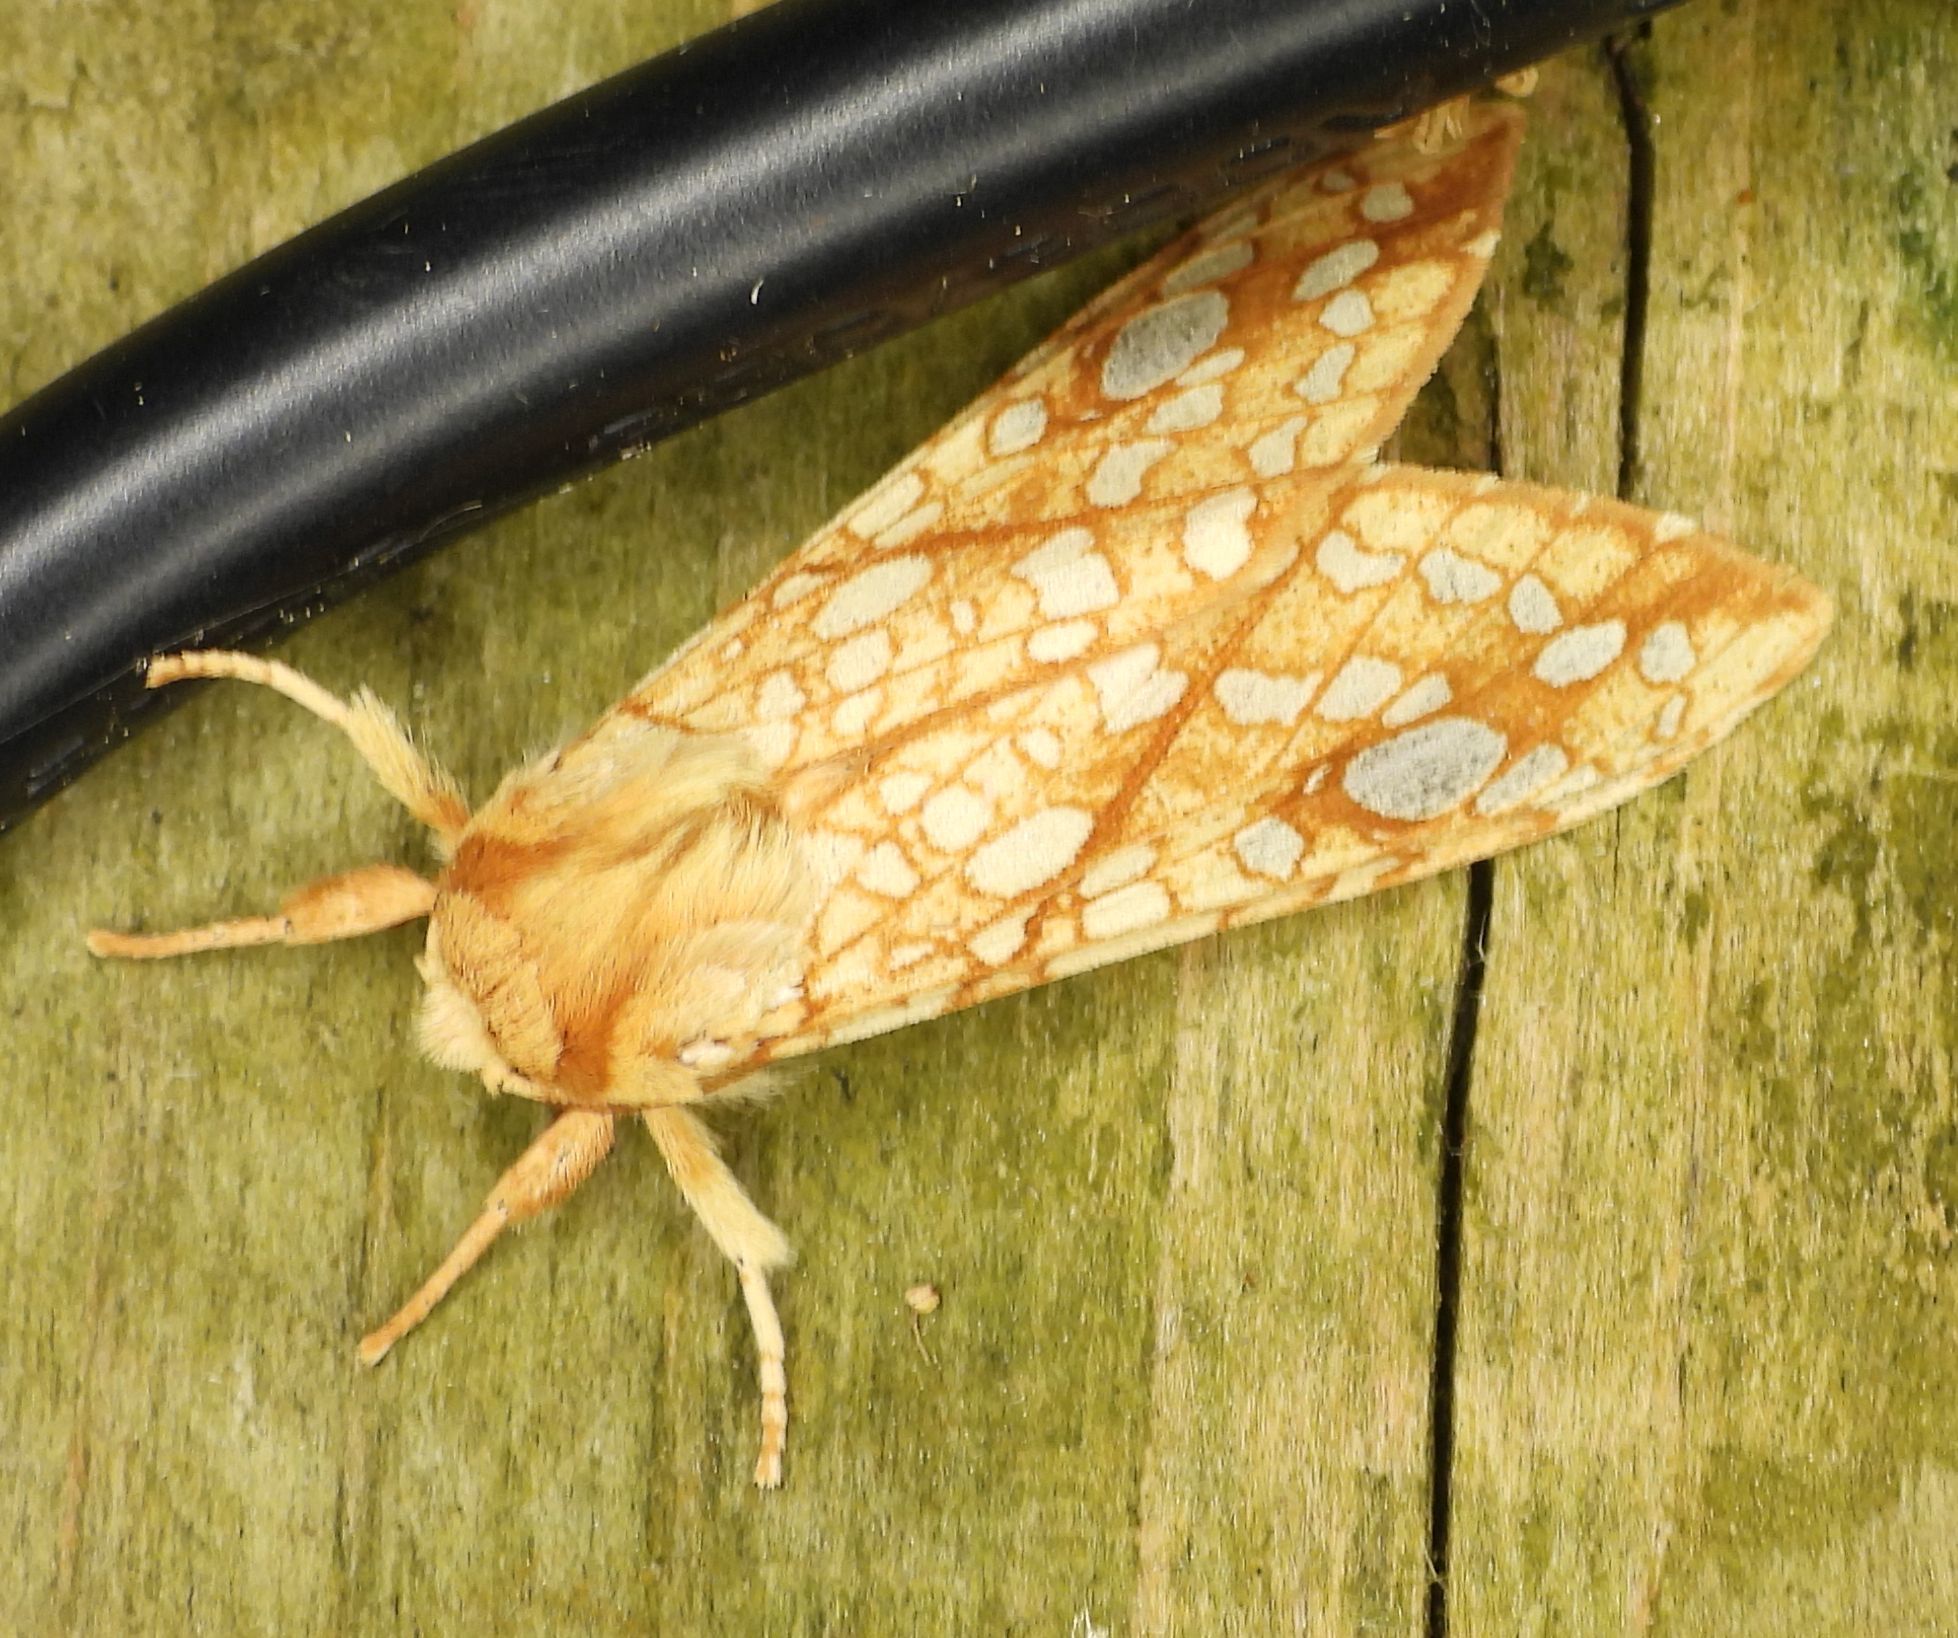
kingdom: Animalia
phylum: Arthropoda
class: Insecta
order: Lepidoptera
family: Erebidae
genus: Lophocampa
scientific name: Lophocampa caryae
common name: Hickory tussock moth
